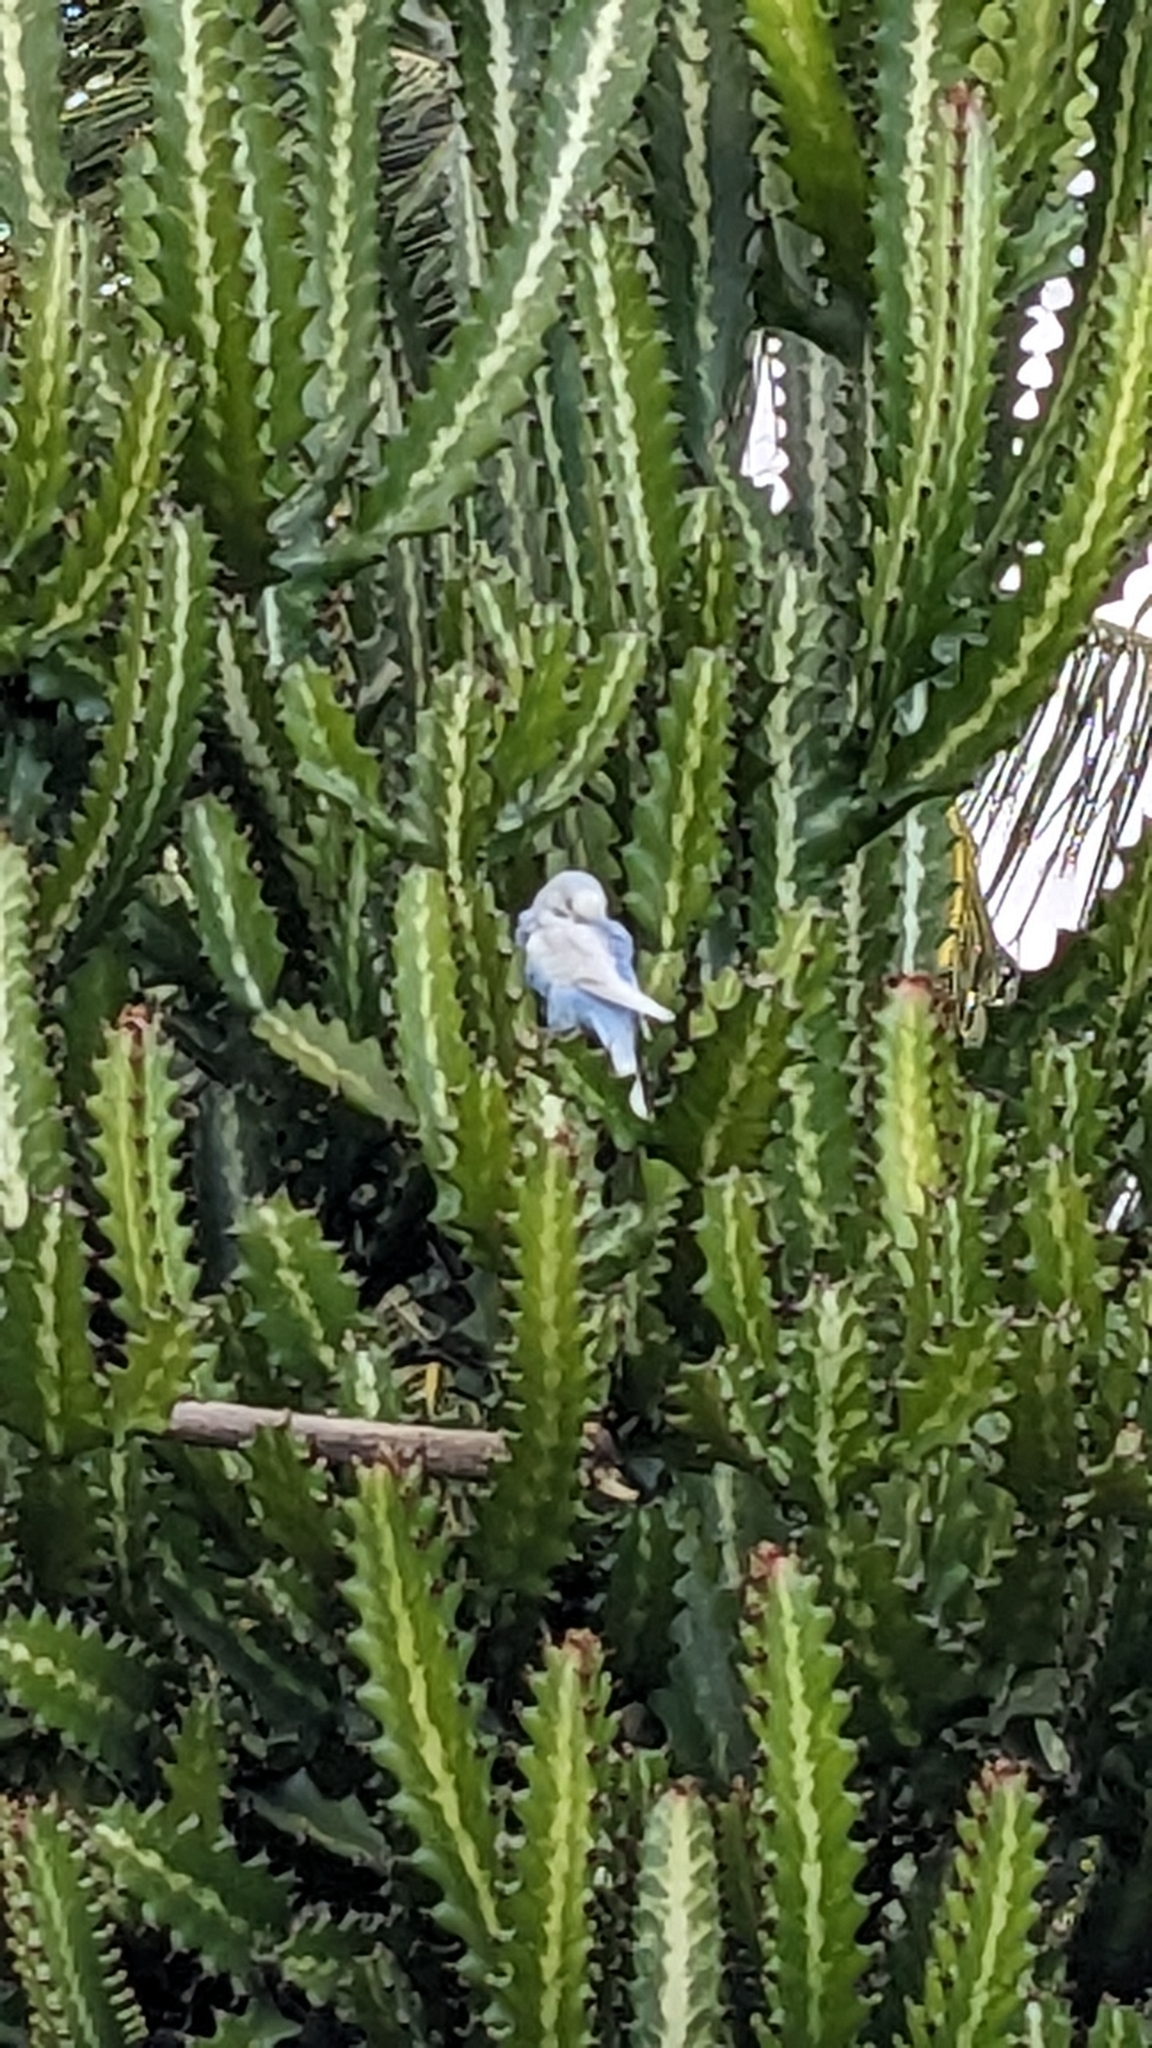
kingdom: Plantae
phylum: Tracheophyta
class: Magnoliopsida
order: Malpighiales
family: Euphorbiaceae
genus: Euphorbia
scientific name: Euphorbia lactea
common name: Mottled spurge
